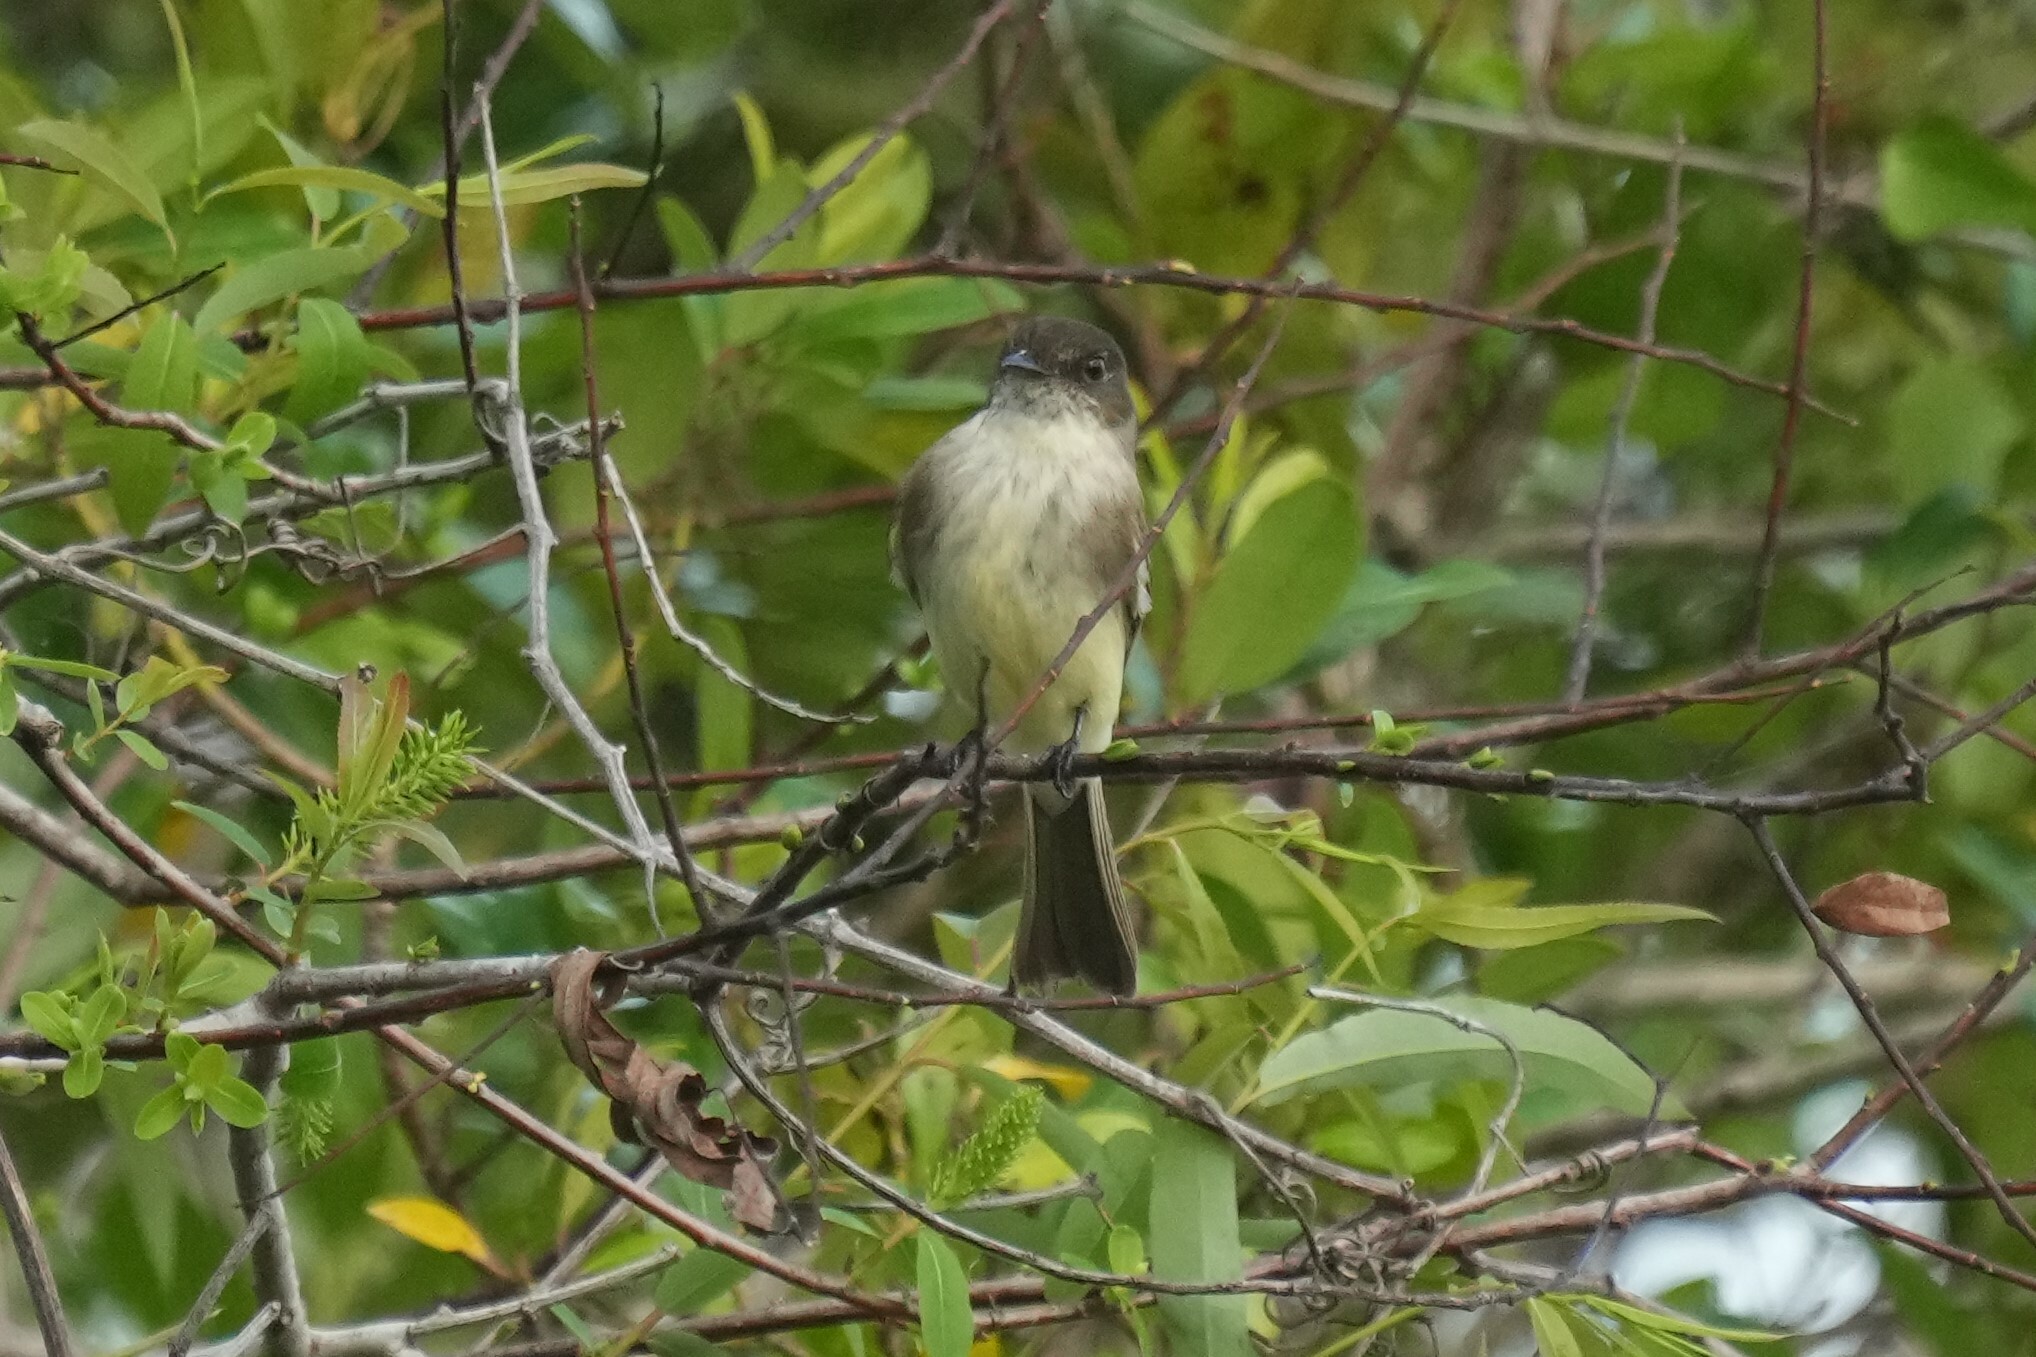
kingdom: Animalia
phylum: Chordata
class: Aves
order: Passeriformes
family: Tyrannidae
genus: Sayornis
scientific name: Sayornis phoebe
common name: Eastern phoebe
